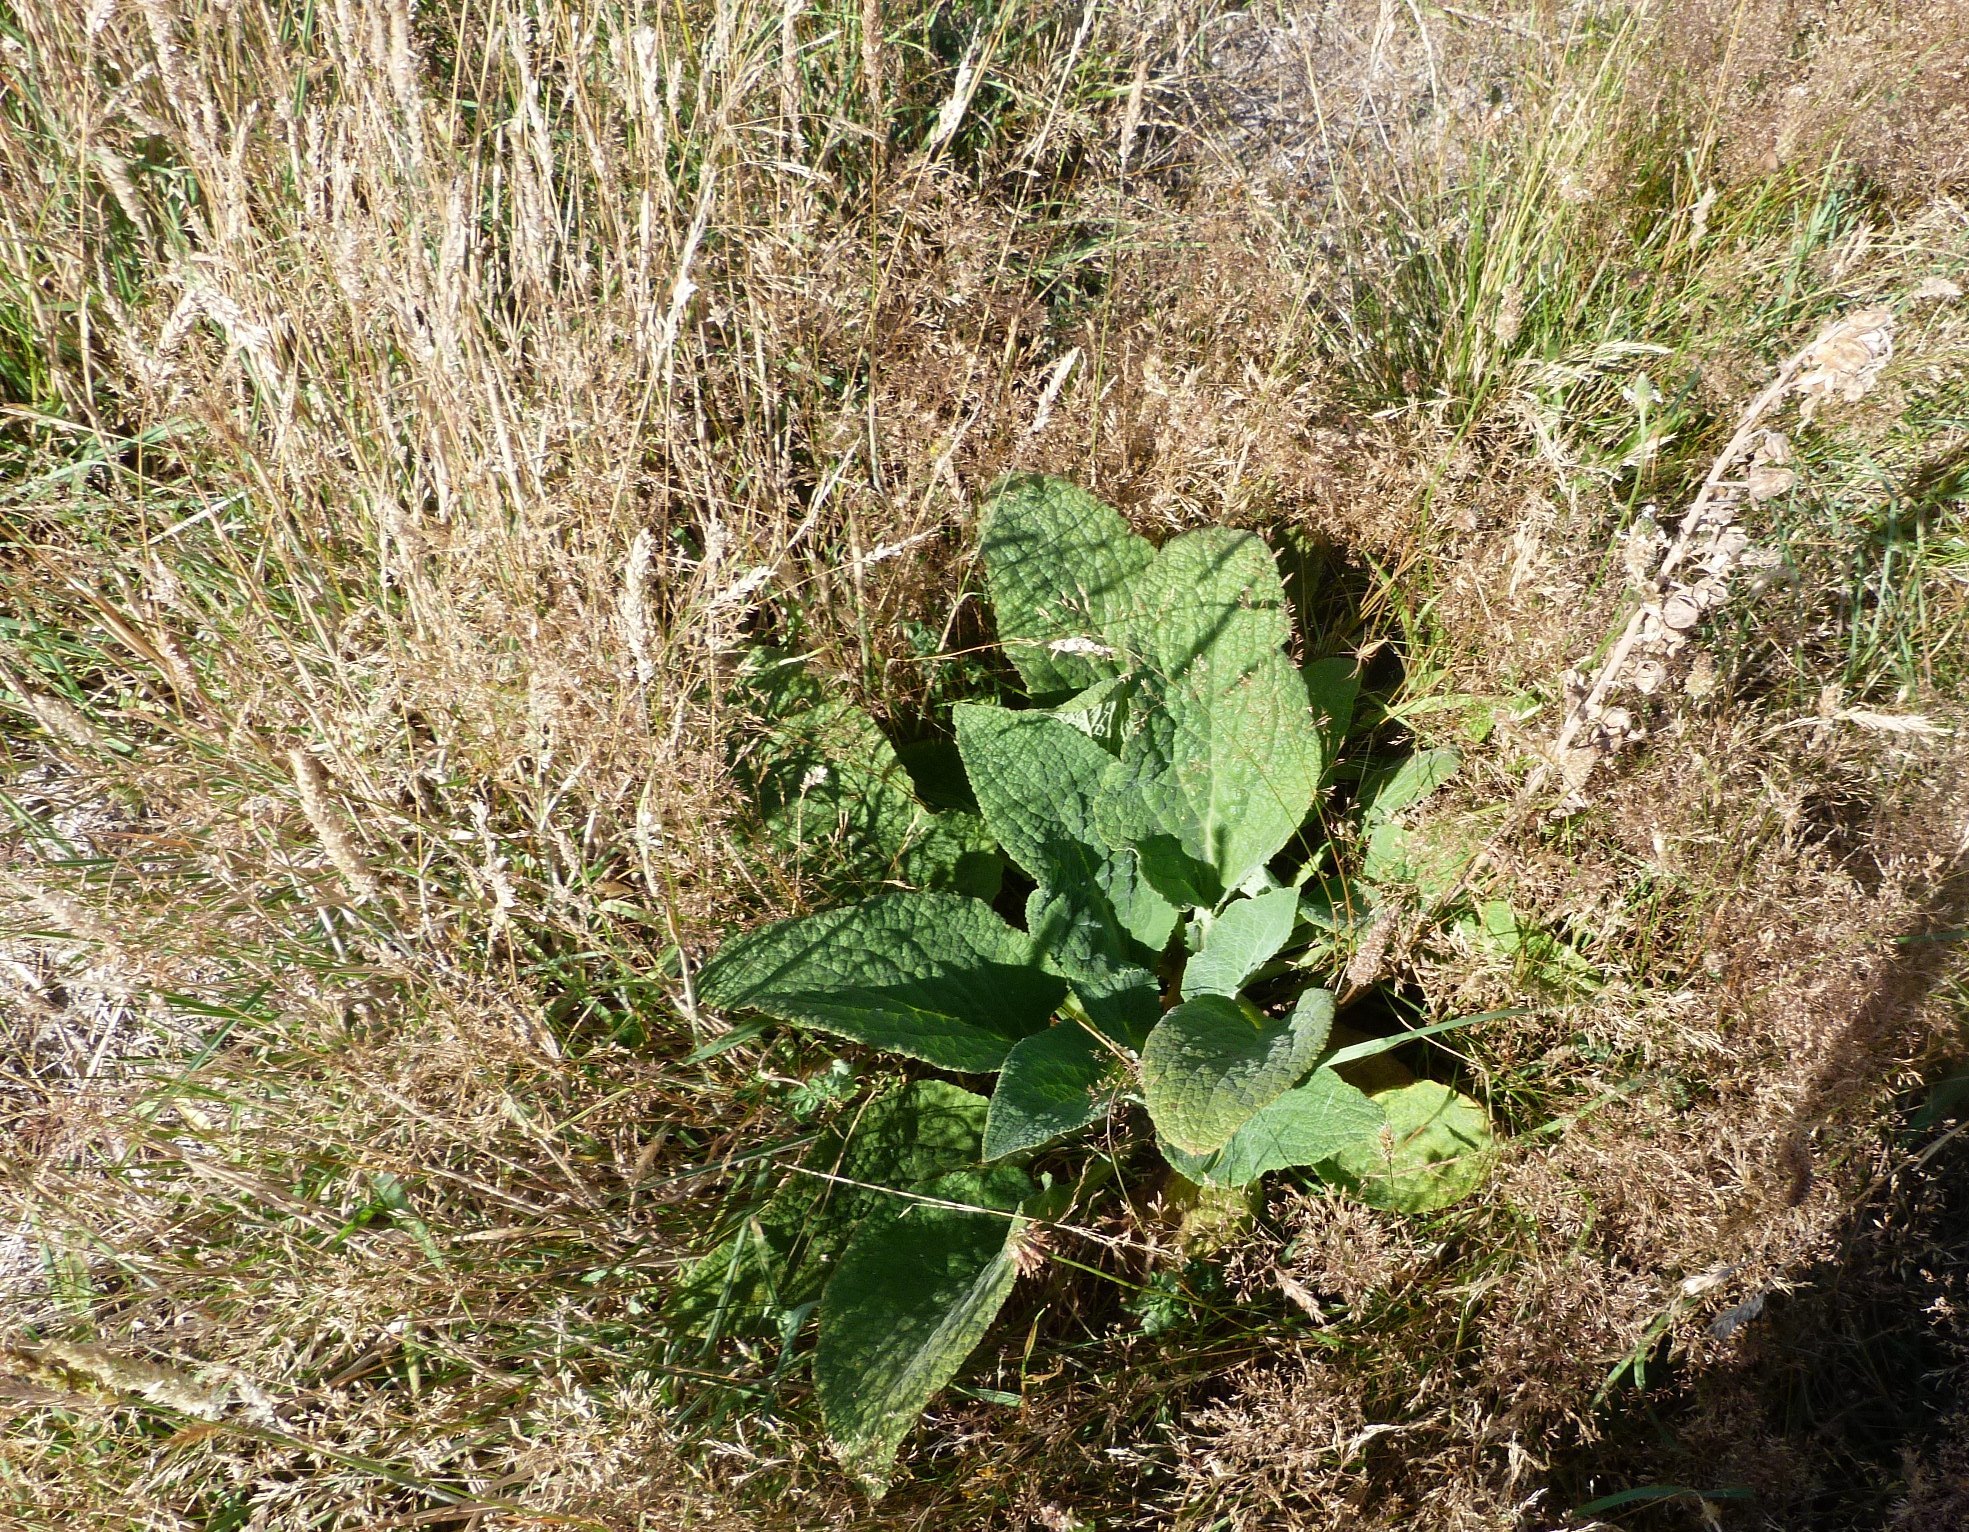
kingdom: Plantae
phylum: Tracheophyta
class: Magnoliopsida
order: Lamiales
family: Plantaginaceae
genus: Digitalis
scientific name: Digitalis purpurea
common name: Foxglove
